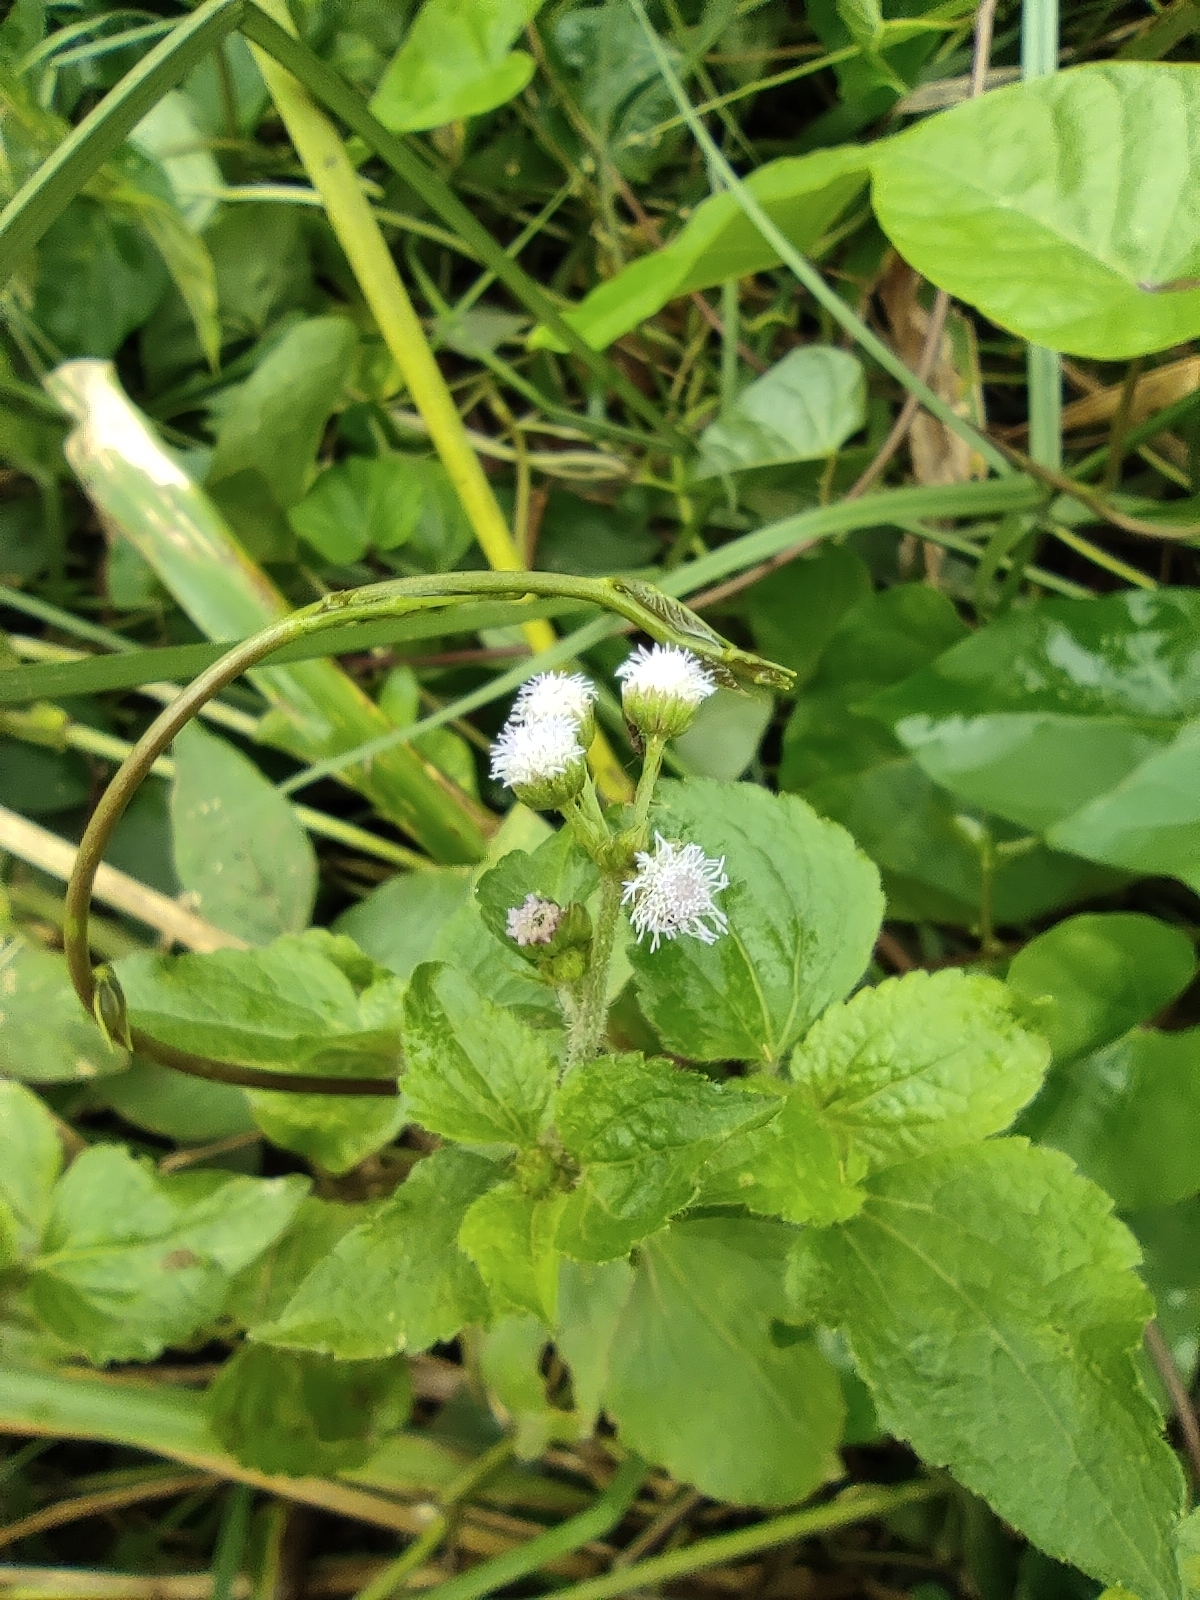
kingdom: Plantae
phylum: Tracheophyta
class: Magnoliopsida
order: Asterales
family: Asteraceae
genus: Ageratum
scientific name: Ageratum conyzoides
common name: Tropical whiteweed
